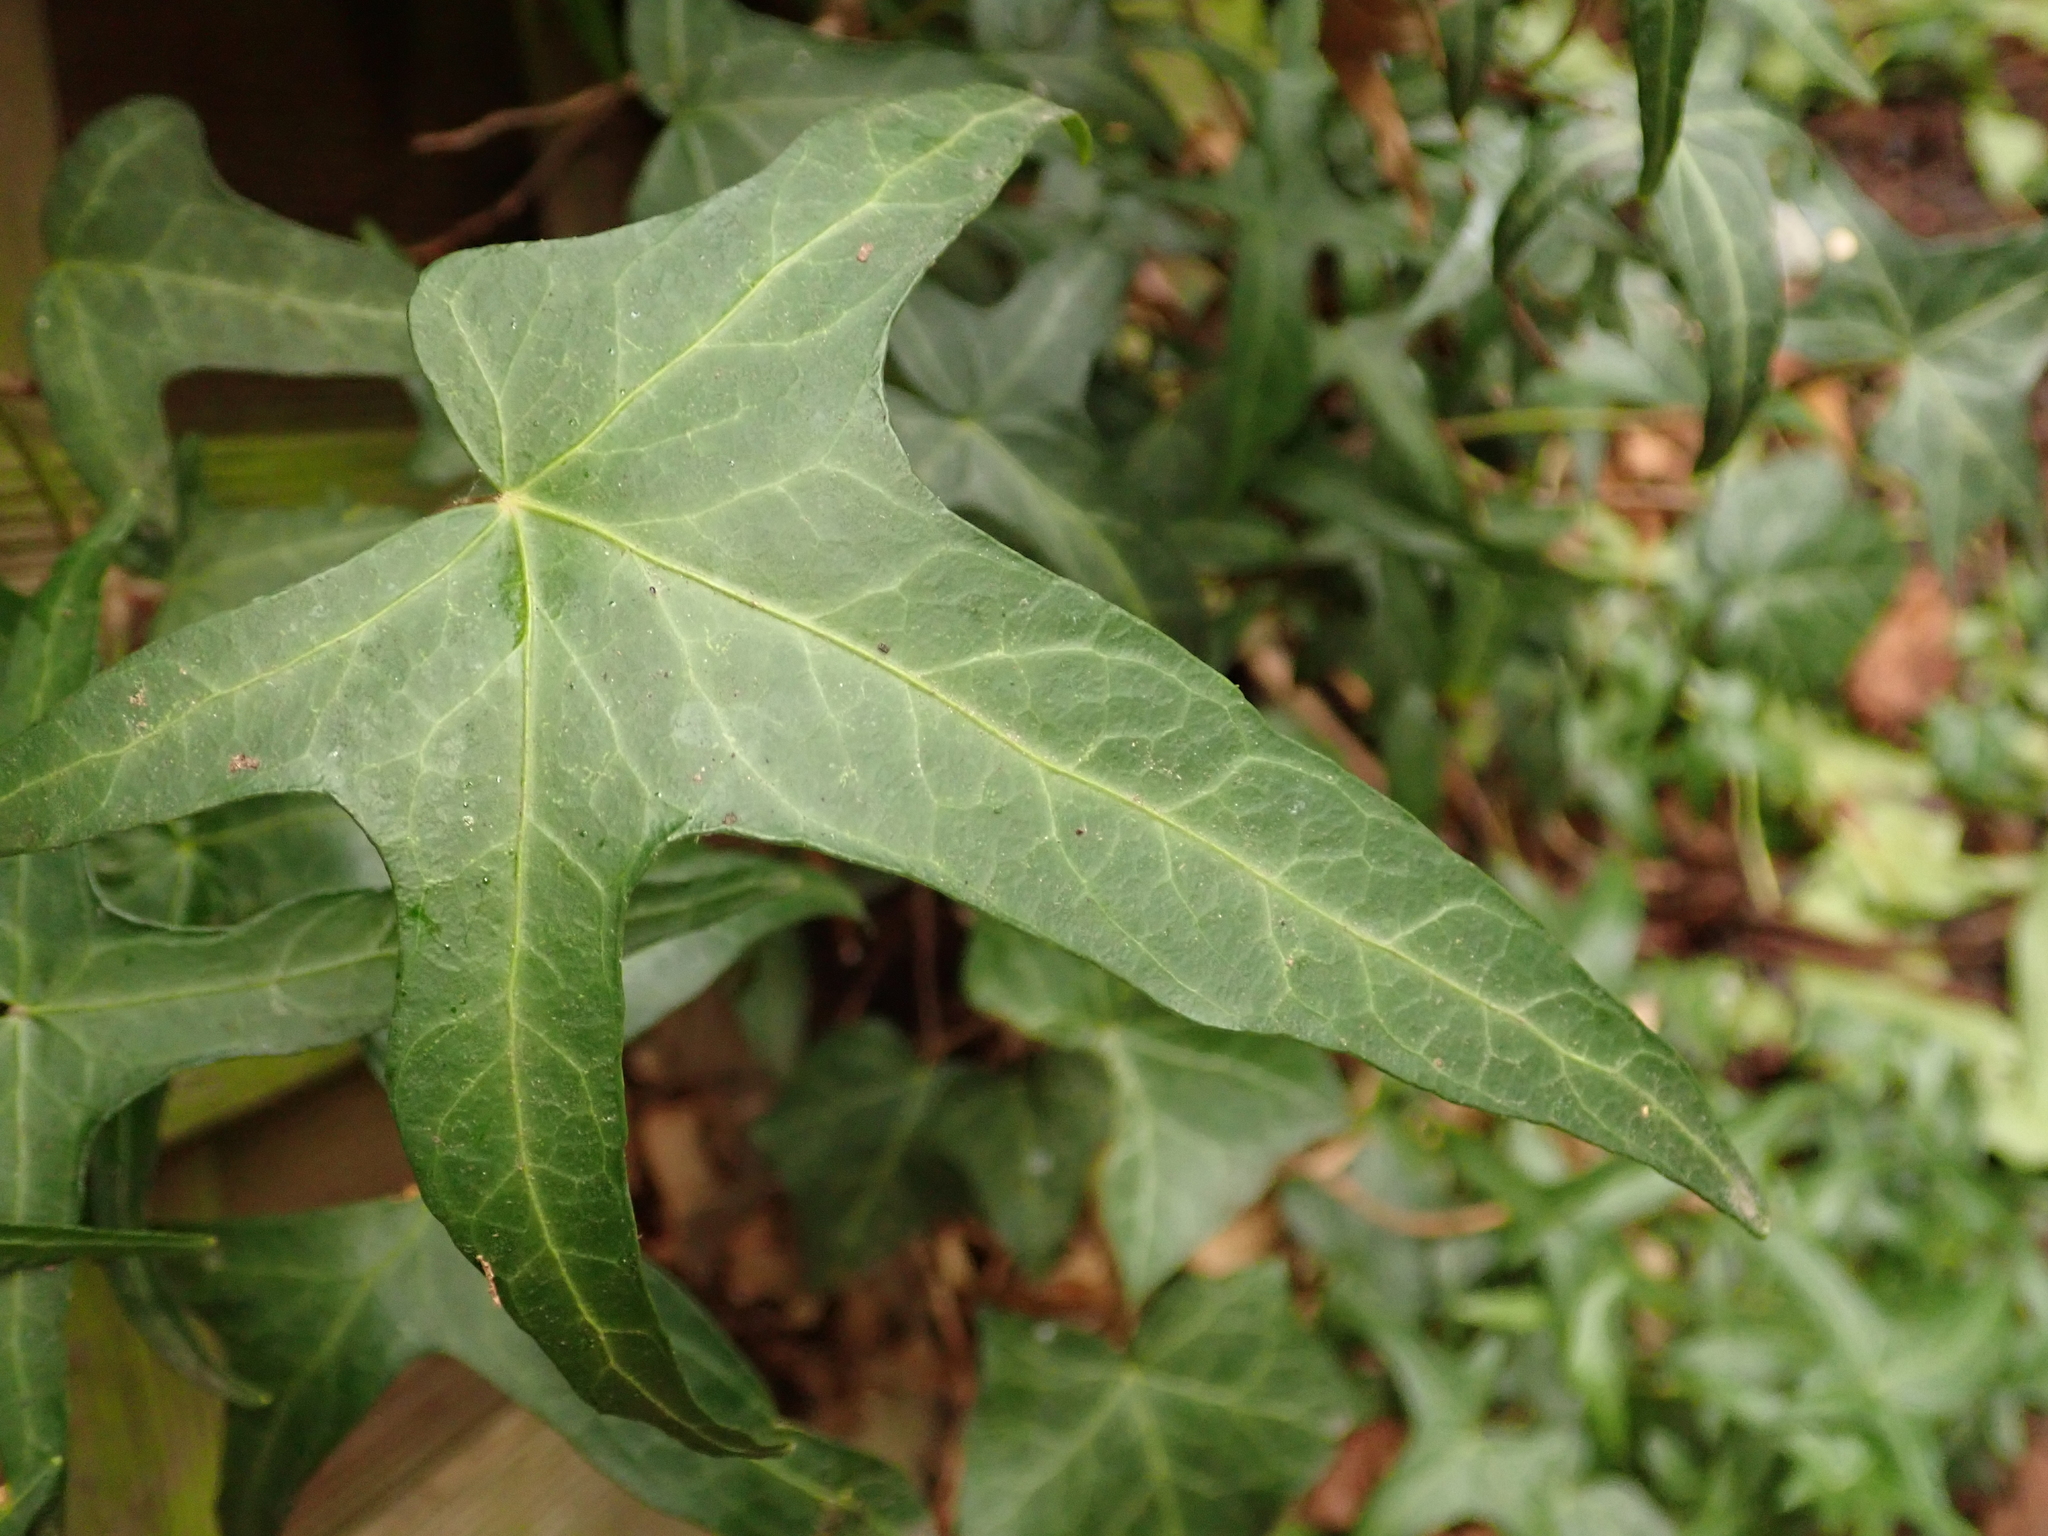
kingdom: Plantae
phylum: Tracheophyta
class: Magnoliopsida
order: Apiales
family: Araliaceae
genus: Hedera
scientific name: Hedera helix
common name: Ivy
